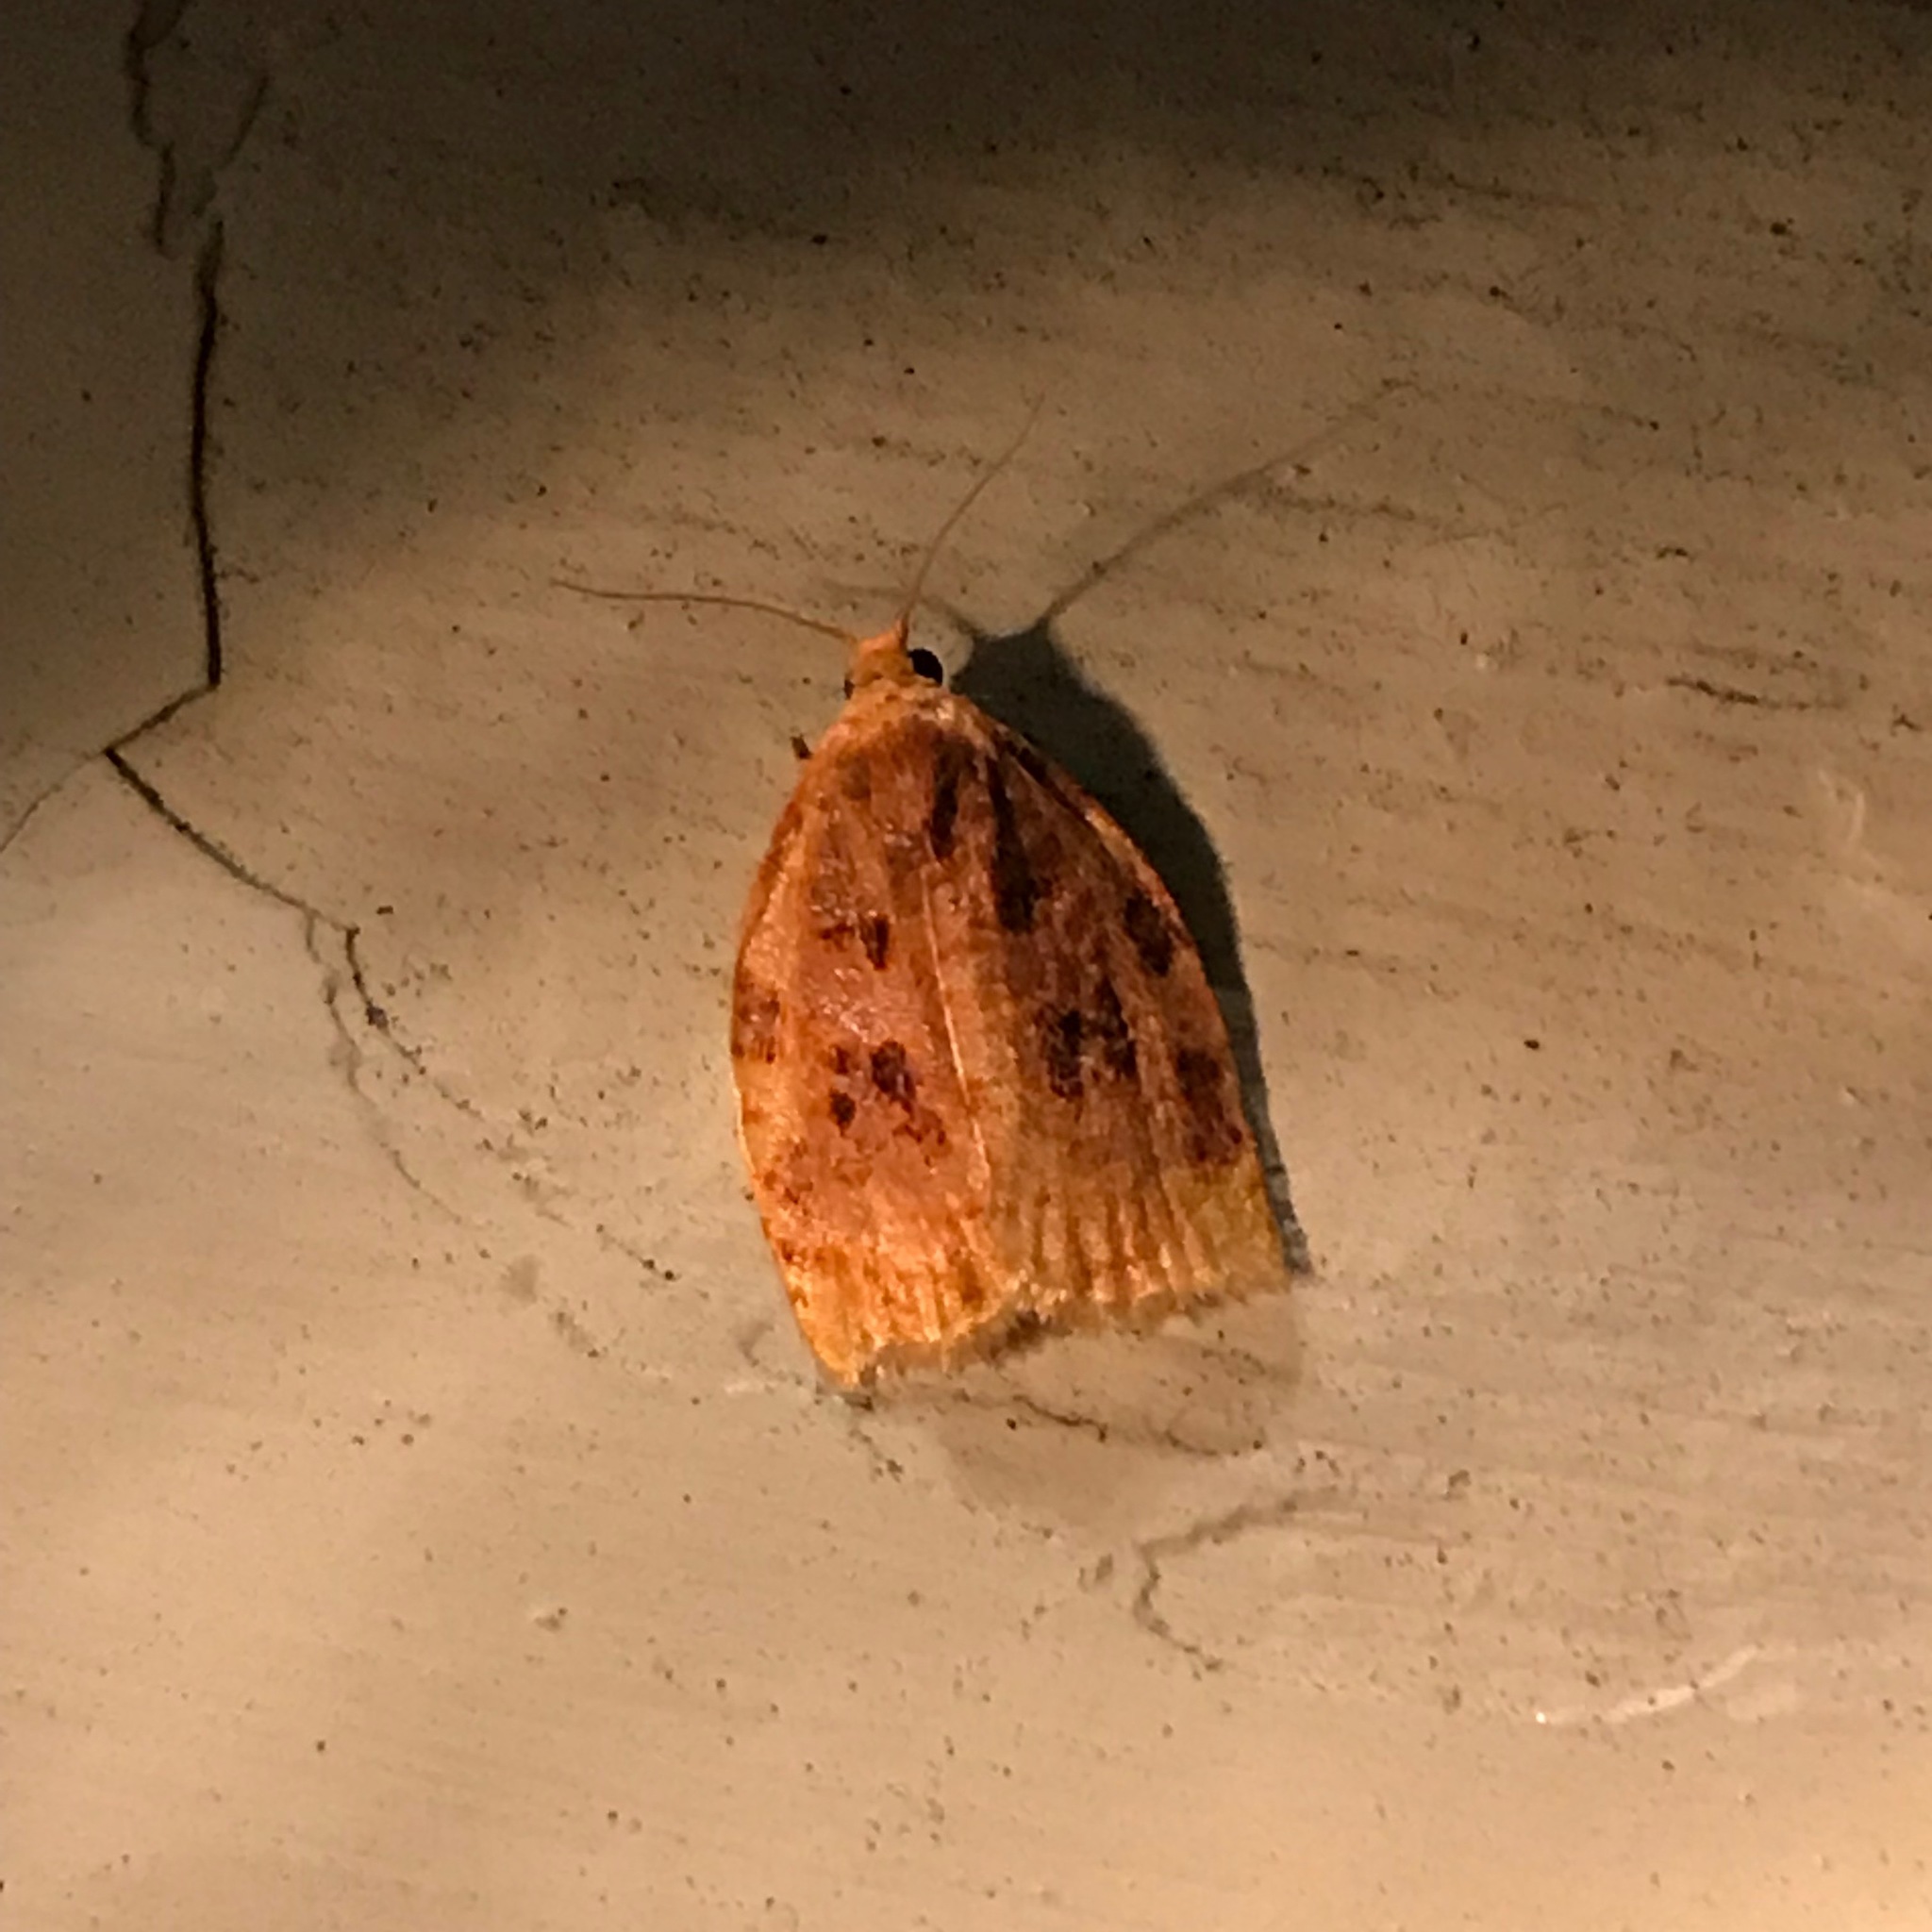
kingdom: Animalia
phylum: Arthropoda
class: Insecta
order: Lepidoptera
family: Tortricidae
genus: Archips
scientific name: Archips cerasivorana
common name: Uglynest caterpillar
